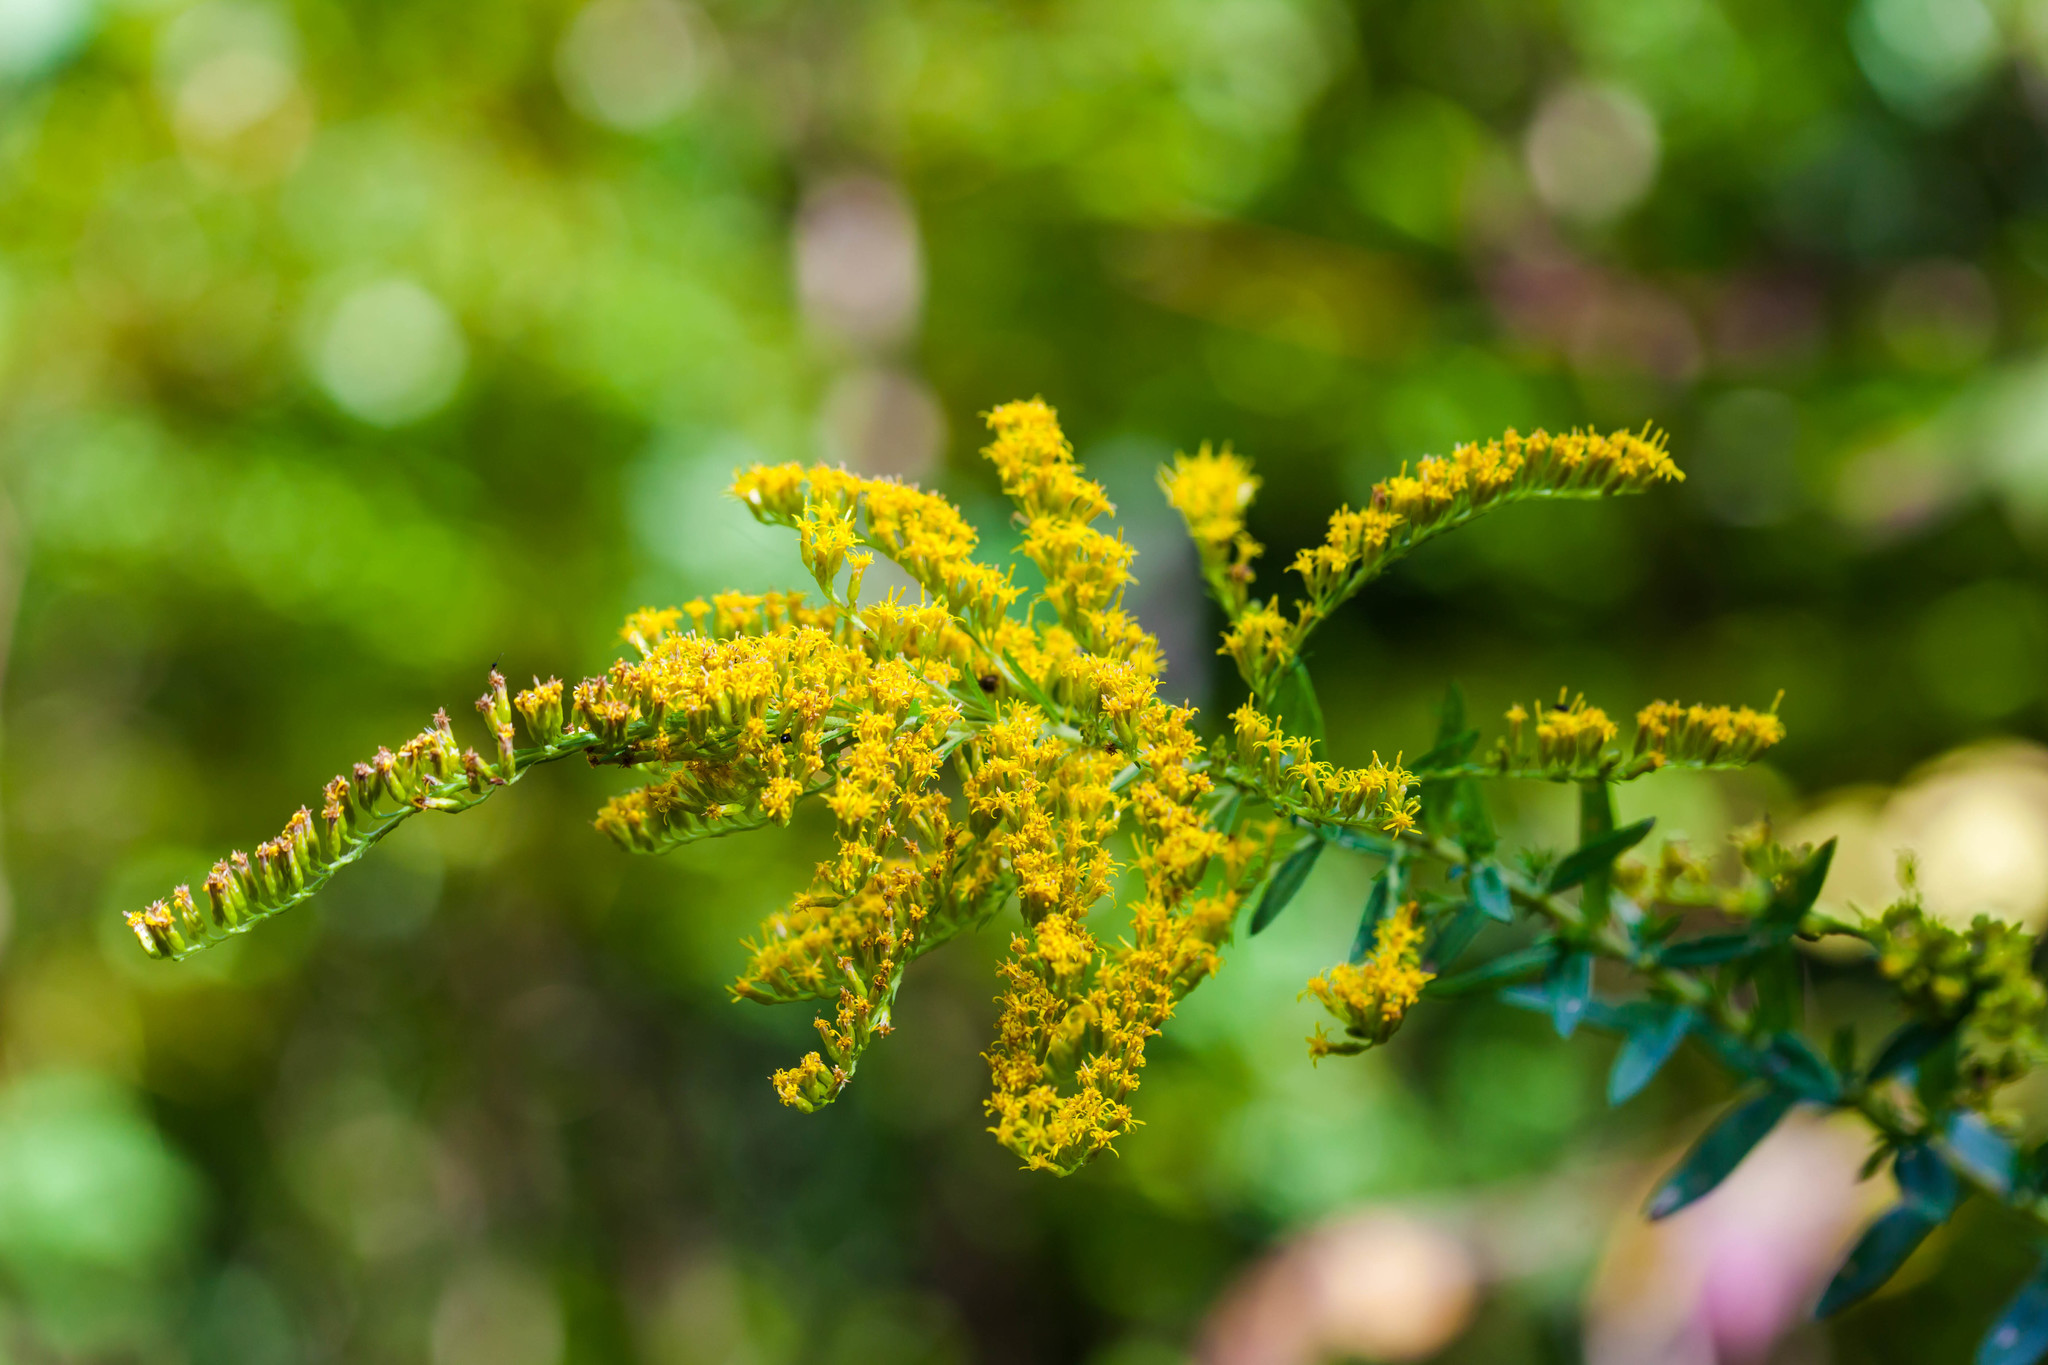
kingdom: Plantae
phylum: Tracheophyta
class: Magnoliopsida
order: Asterales
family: Asteraceae
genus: Solidago
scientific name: Solidago canadensis
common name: Canada goldenrod
